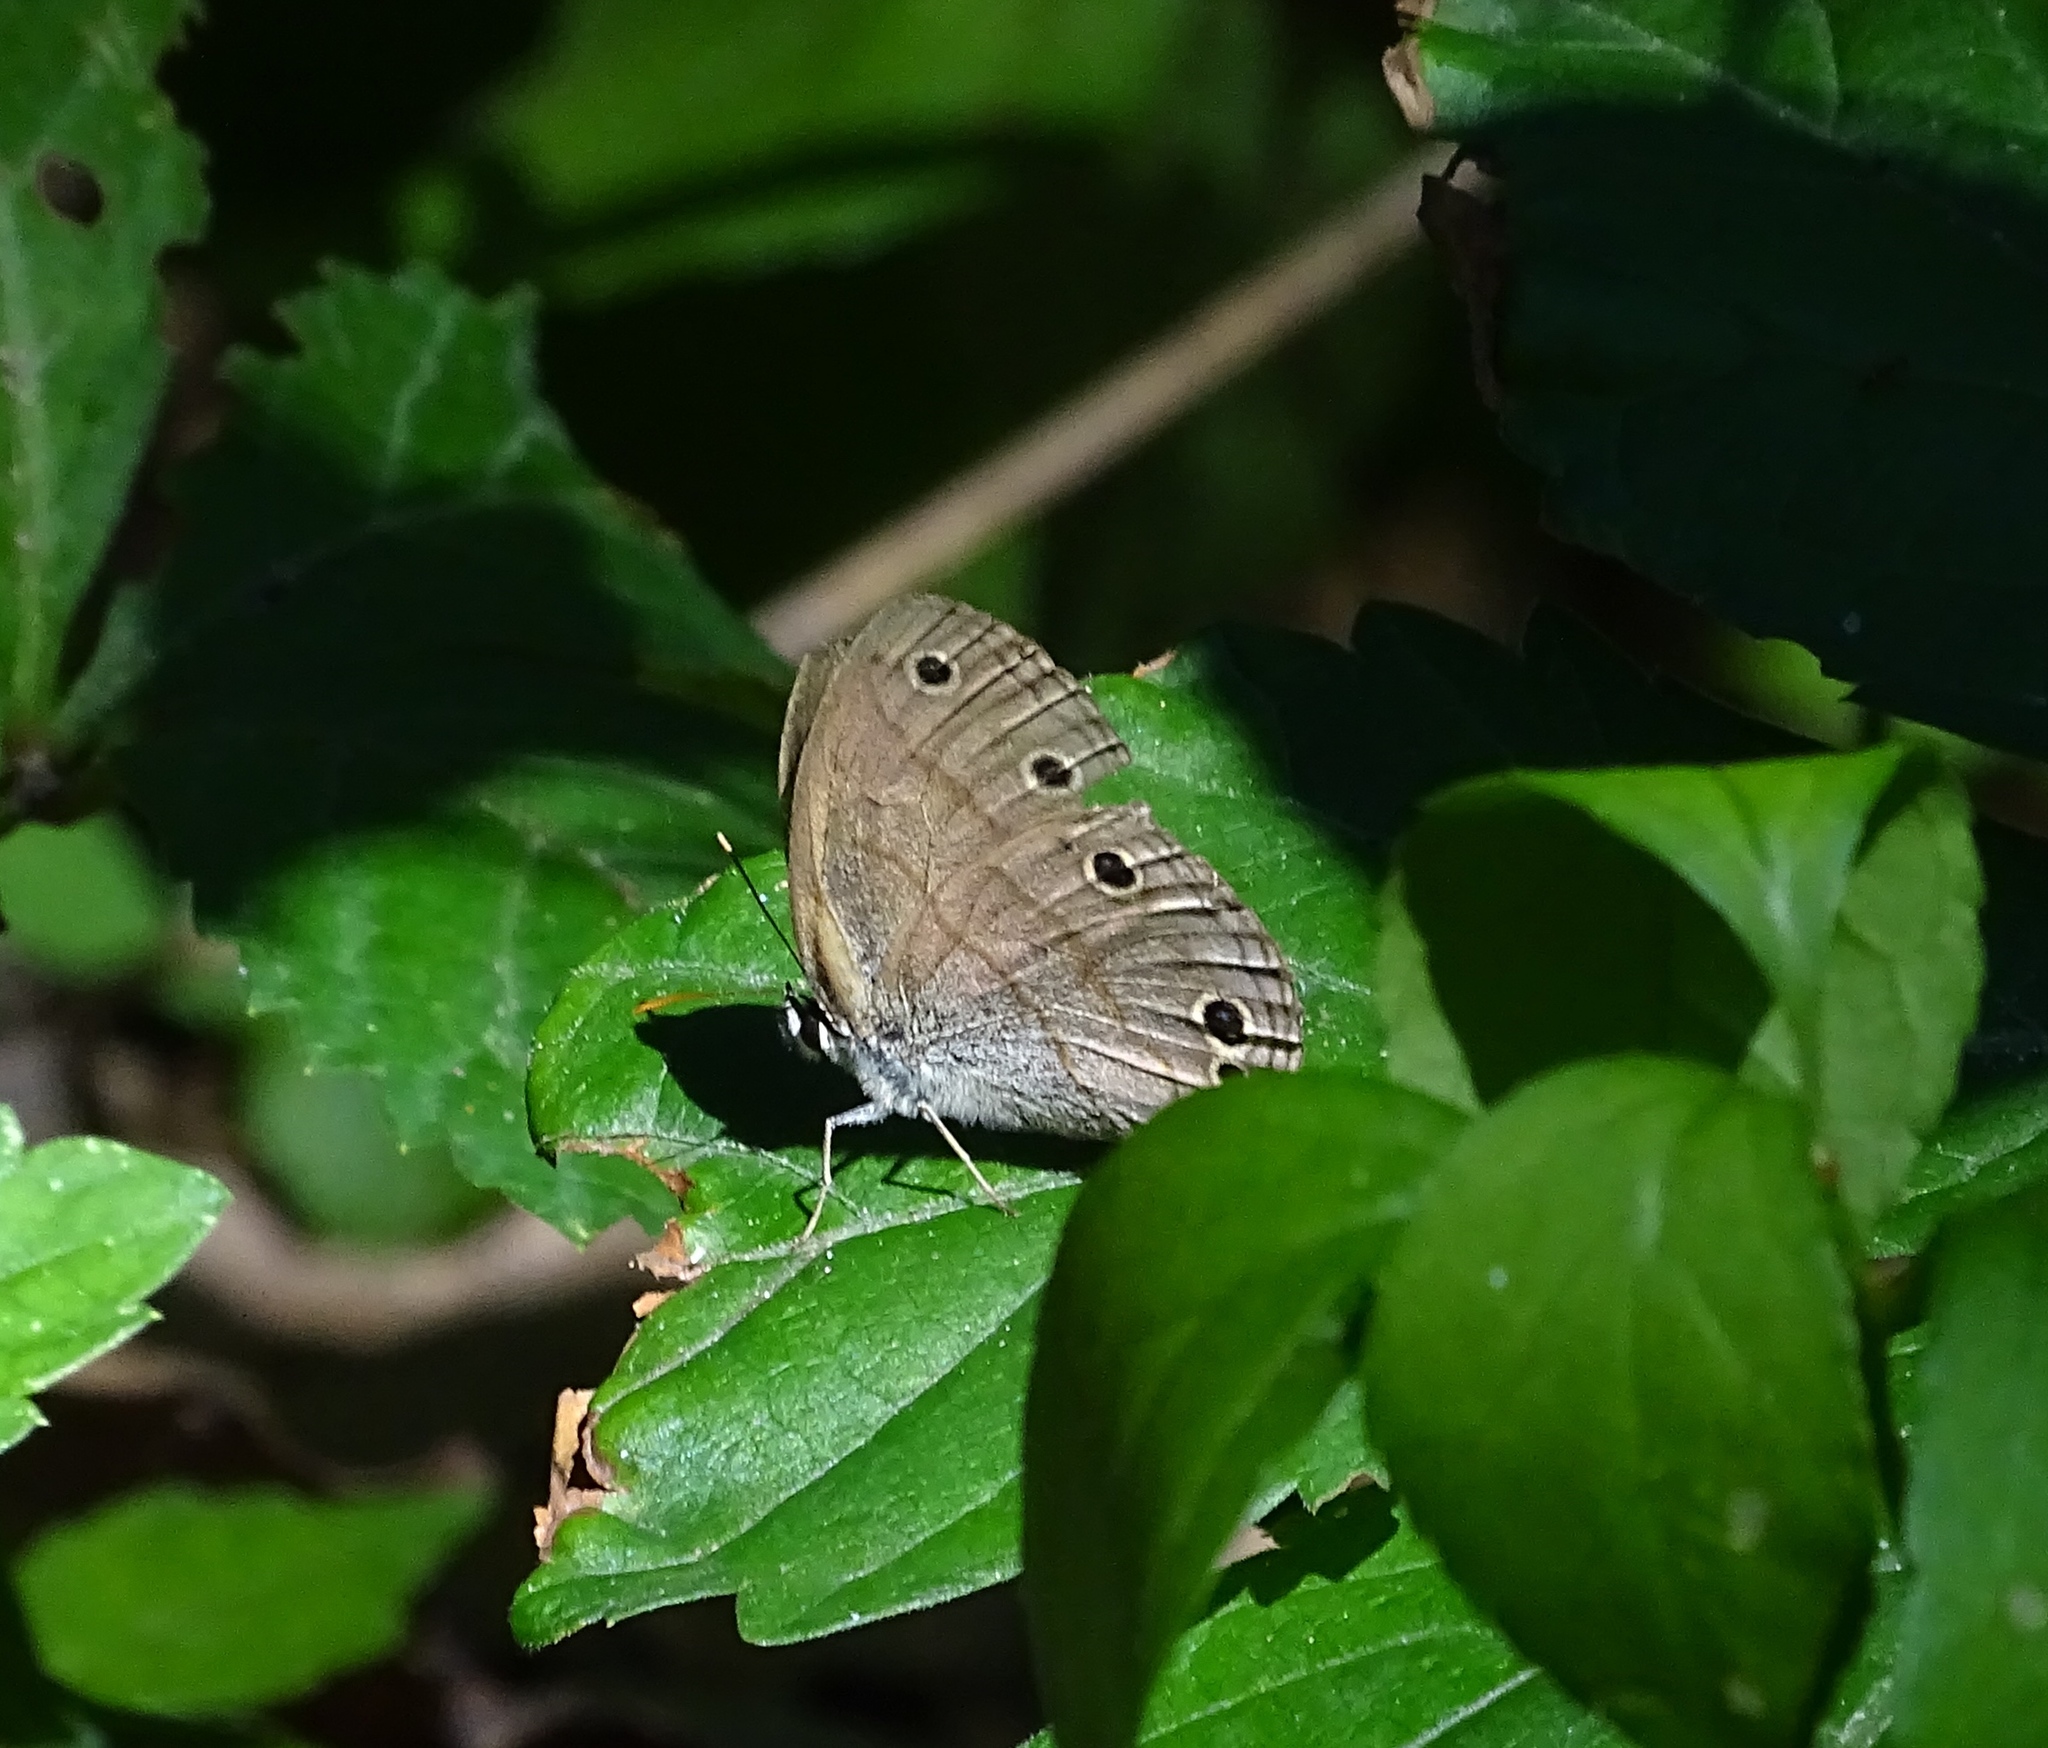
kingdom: Animalia
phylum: Arthropoda
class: Insecta
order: Lepidoptera
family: Nymphalidae
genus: Euptychia
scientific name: Euptychia cymela
